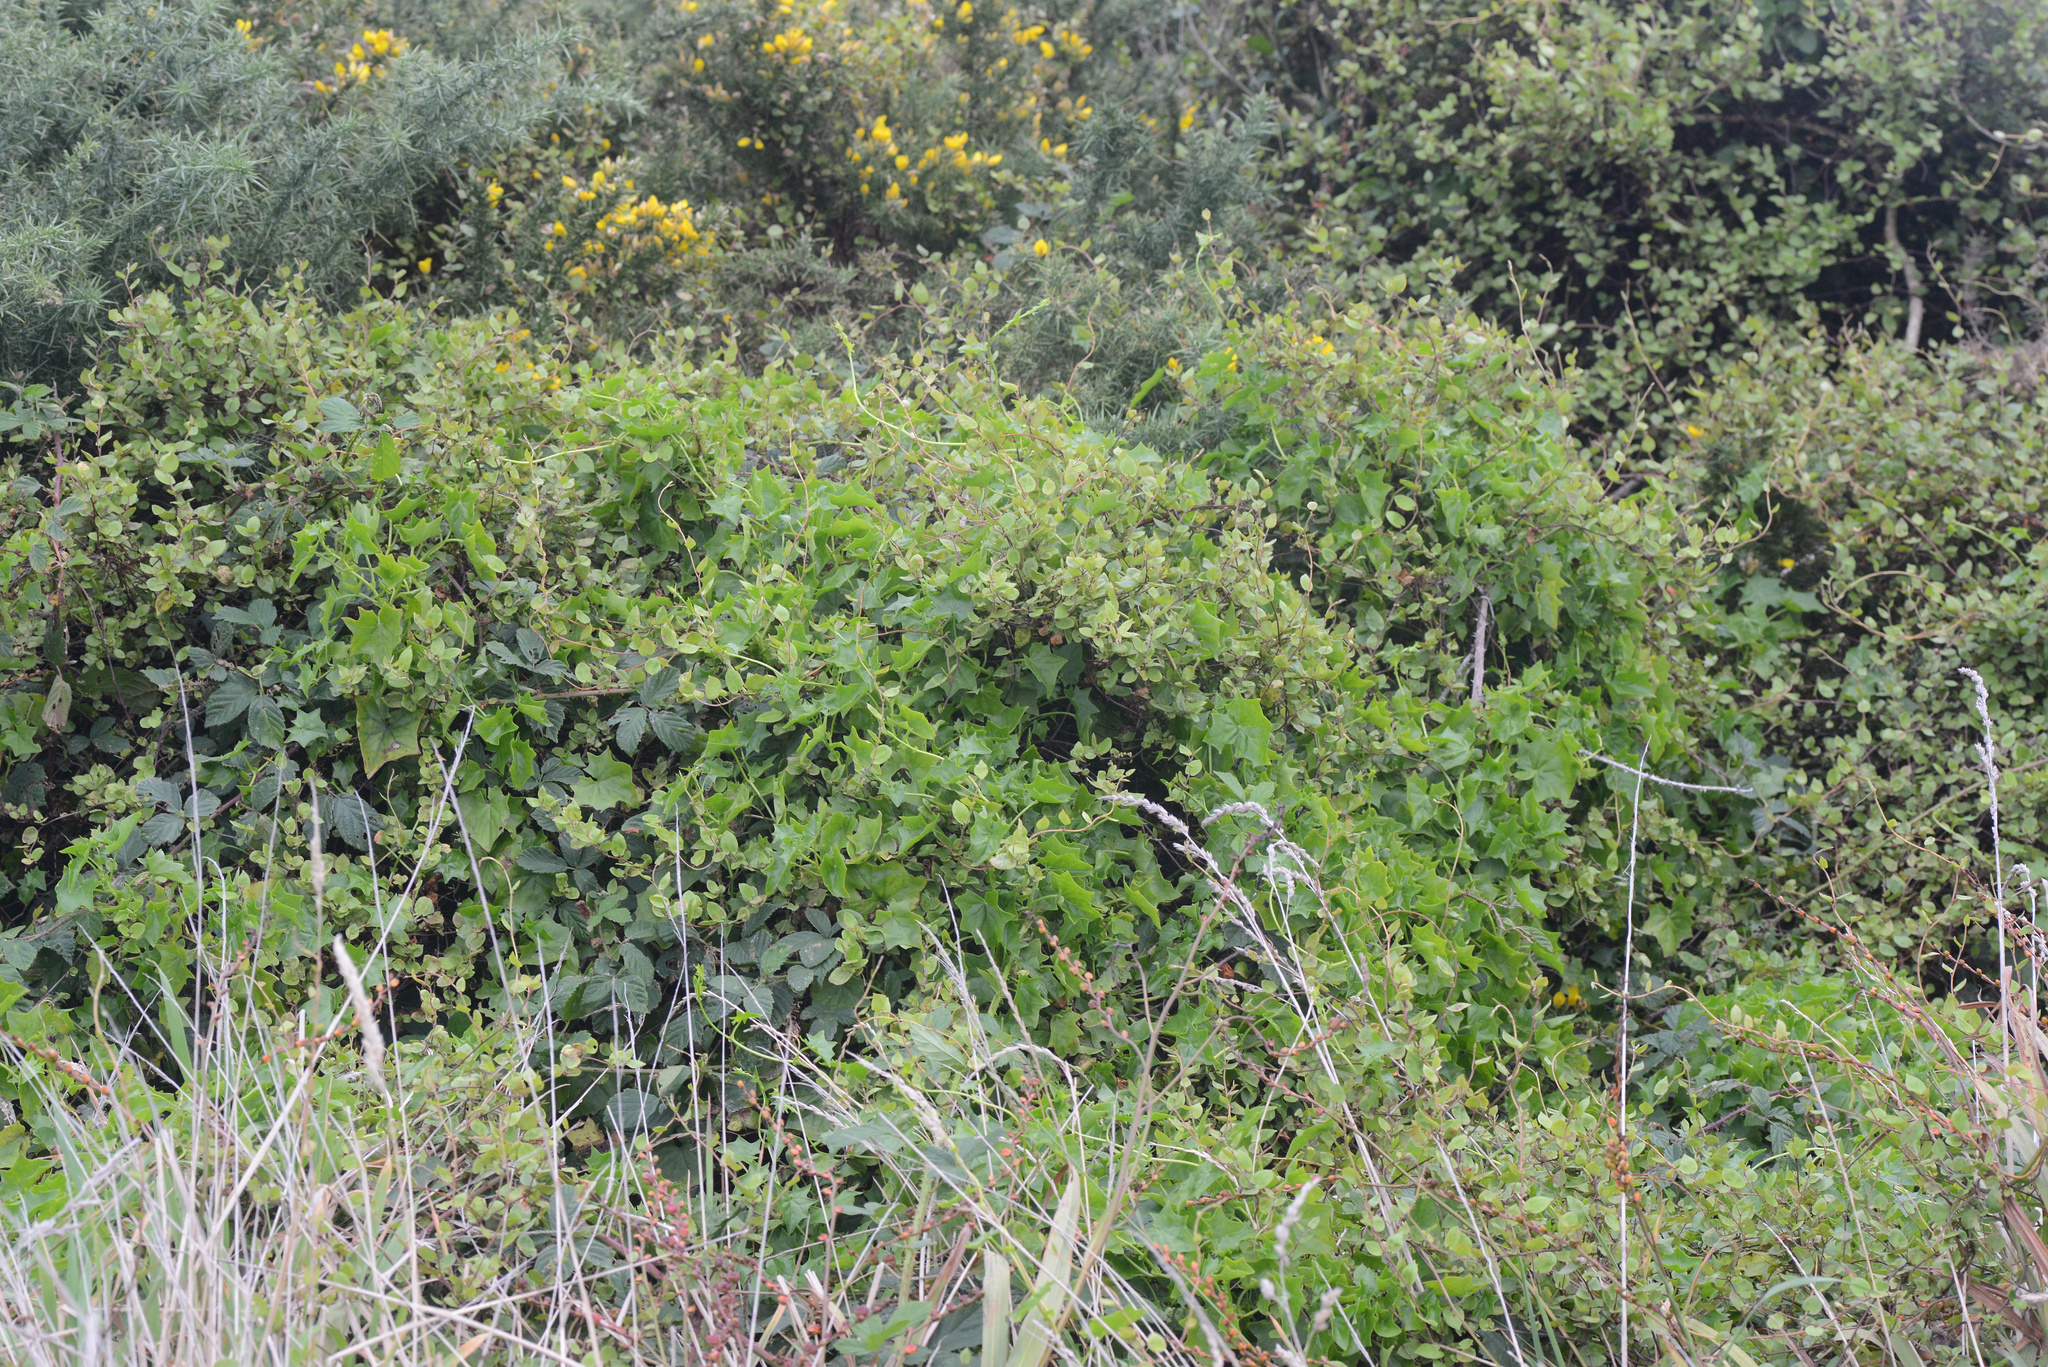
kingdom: Plantae
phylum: Tracheophyta
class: Magnoliopsida
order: Asterales
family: Asteraceae
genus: Delairea
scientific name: Delairea odorata
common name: Cape-ivy
